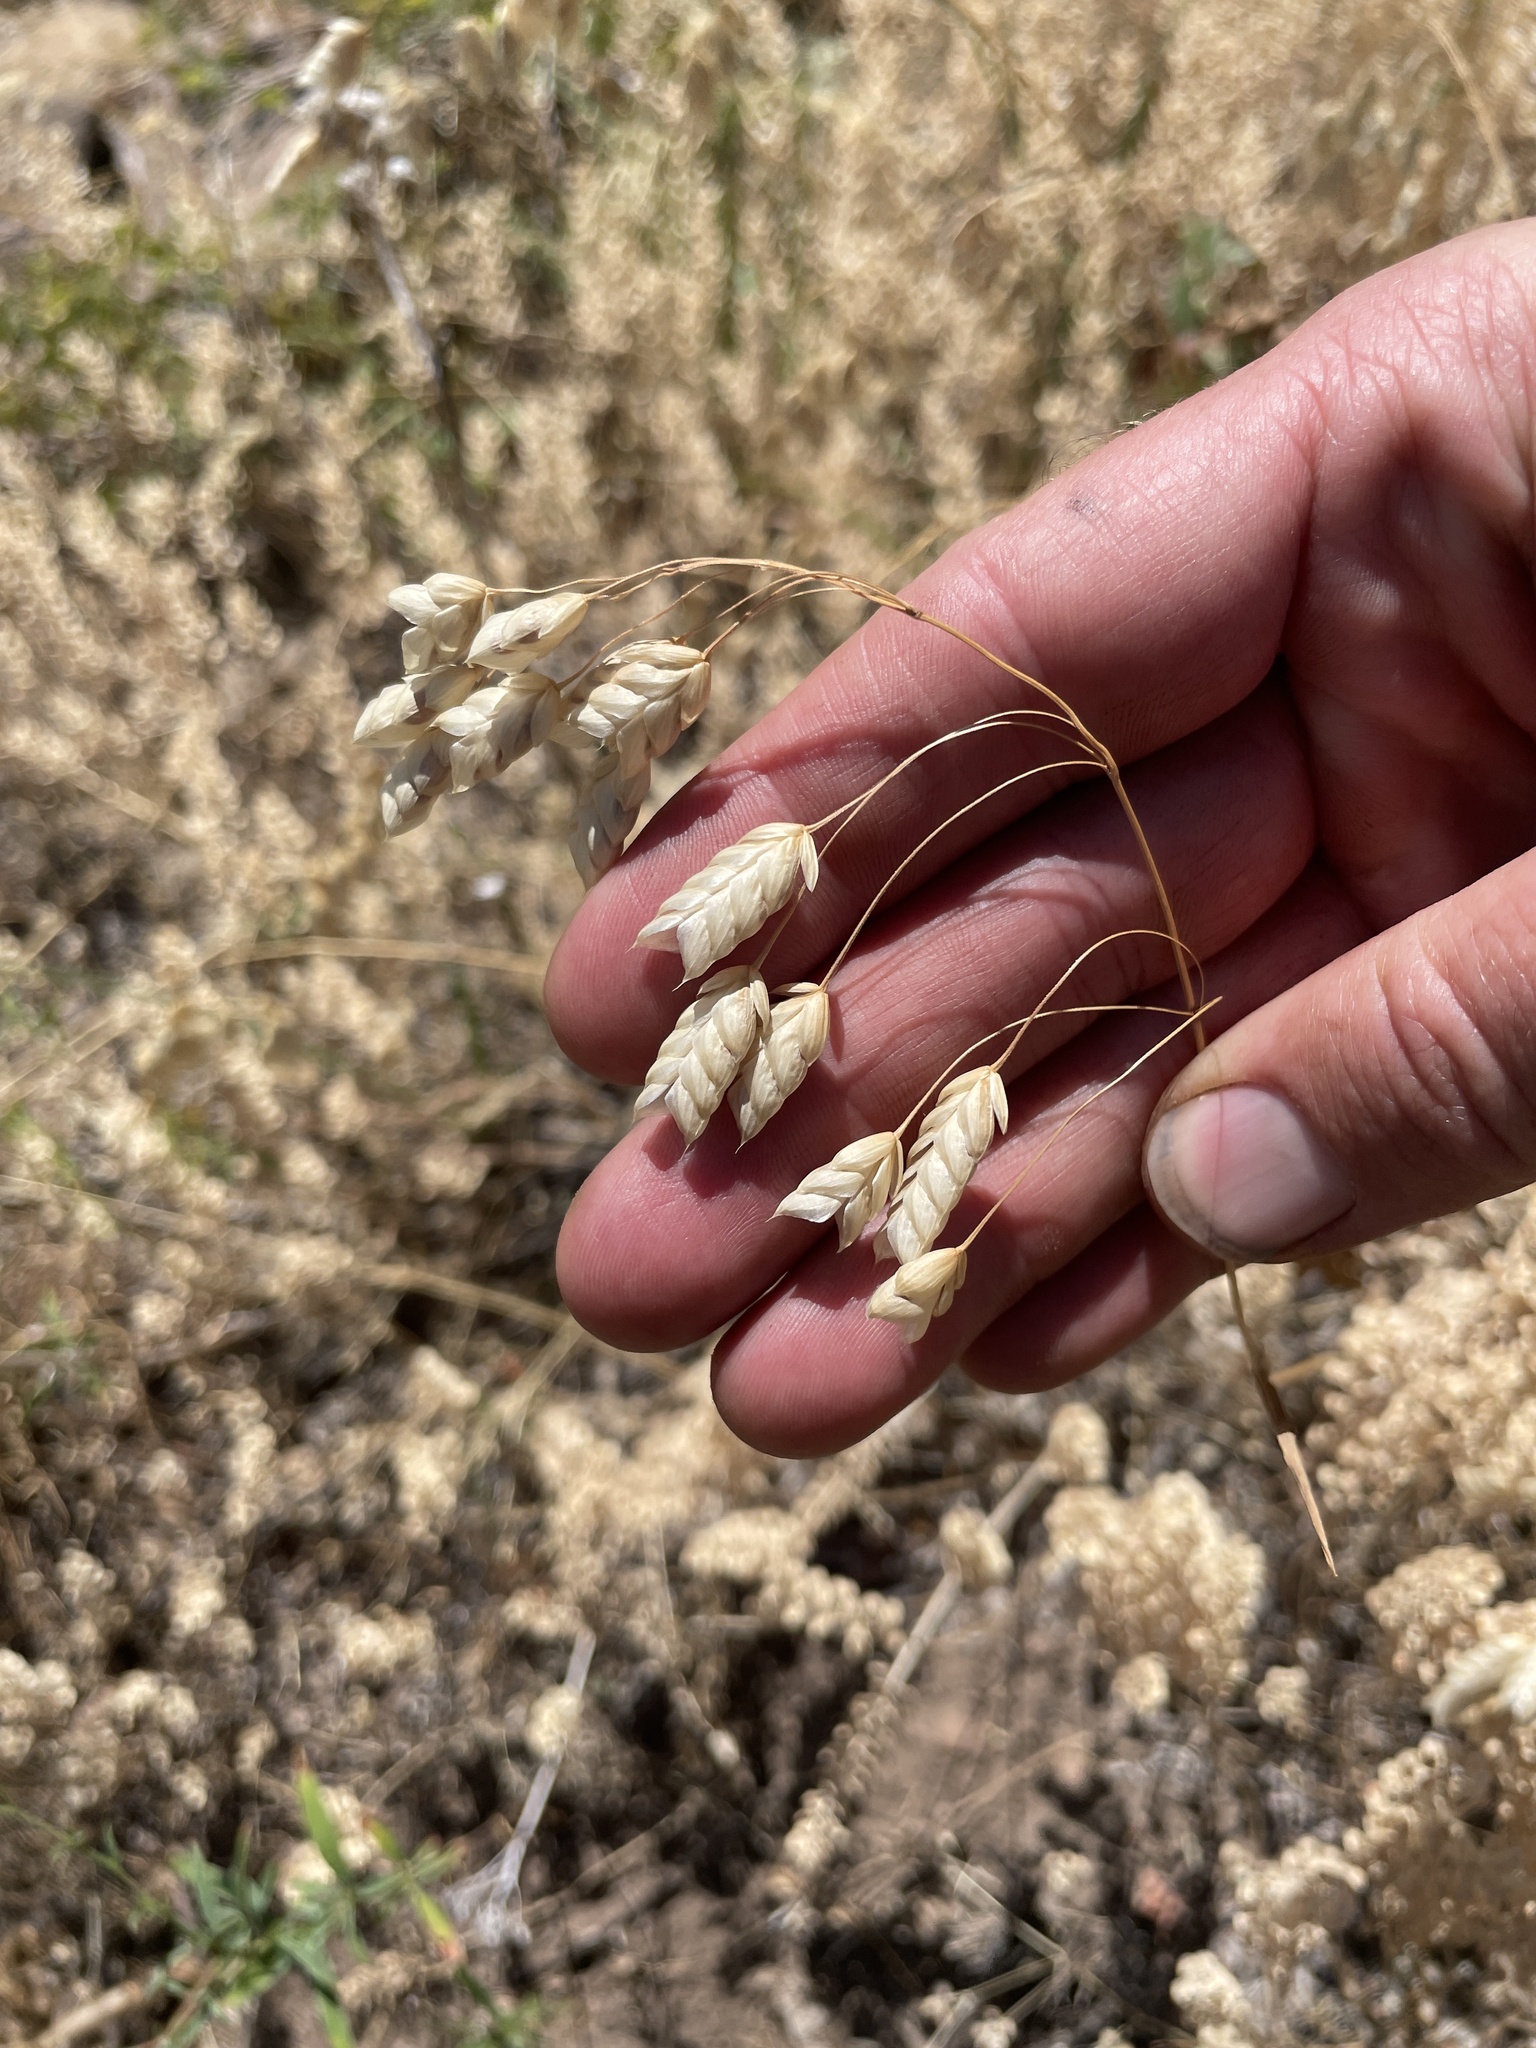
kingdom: Plantae
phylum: Tracheophyta
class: Liliopsida
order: Poales
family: Poaceae
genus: Bromus
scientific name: Bromus briziformis
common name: Rattlesnake brome
